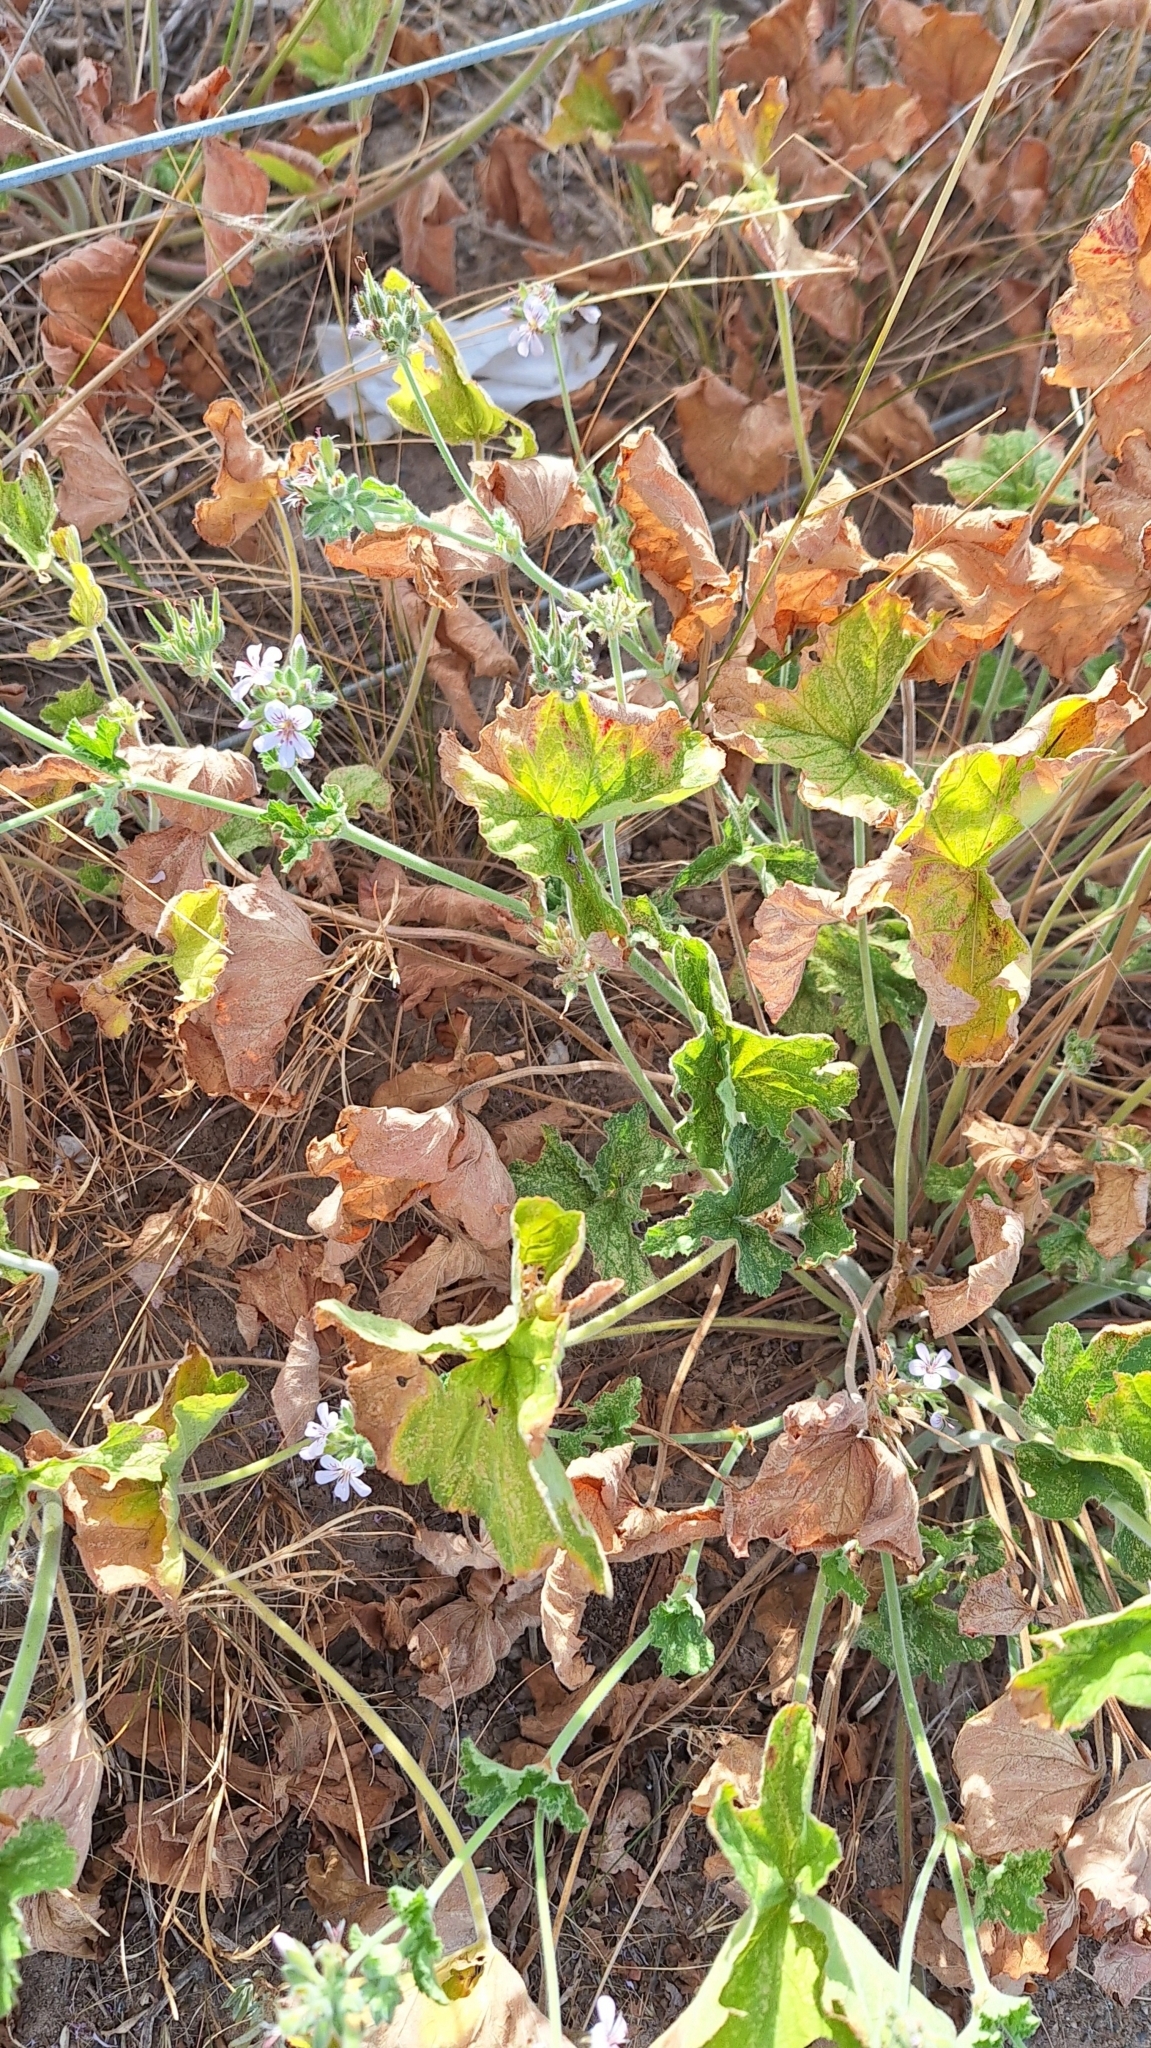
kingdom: Plantae
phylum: Tracheophyta
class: Magnoliopsida
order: Geraniales
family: Geraniaceae
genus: Pelargonium
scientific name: Pelargonium australe
